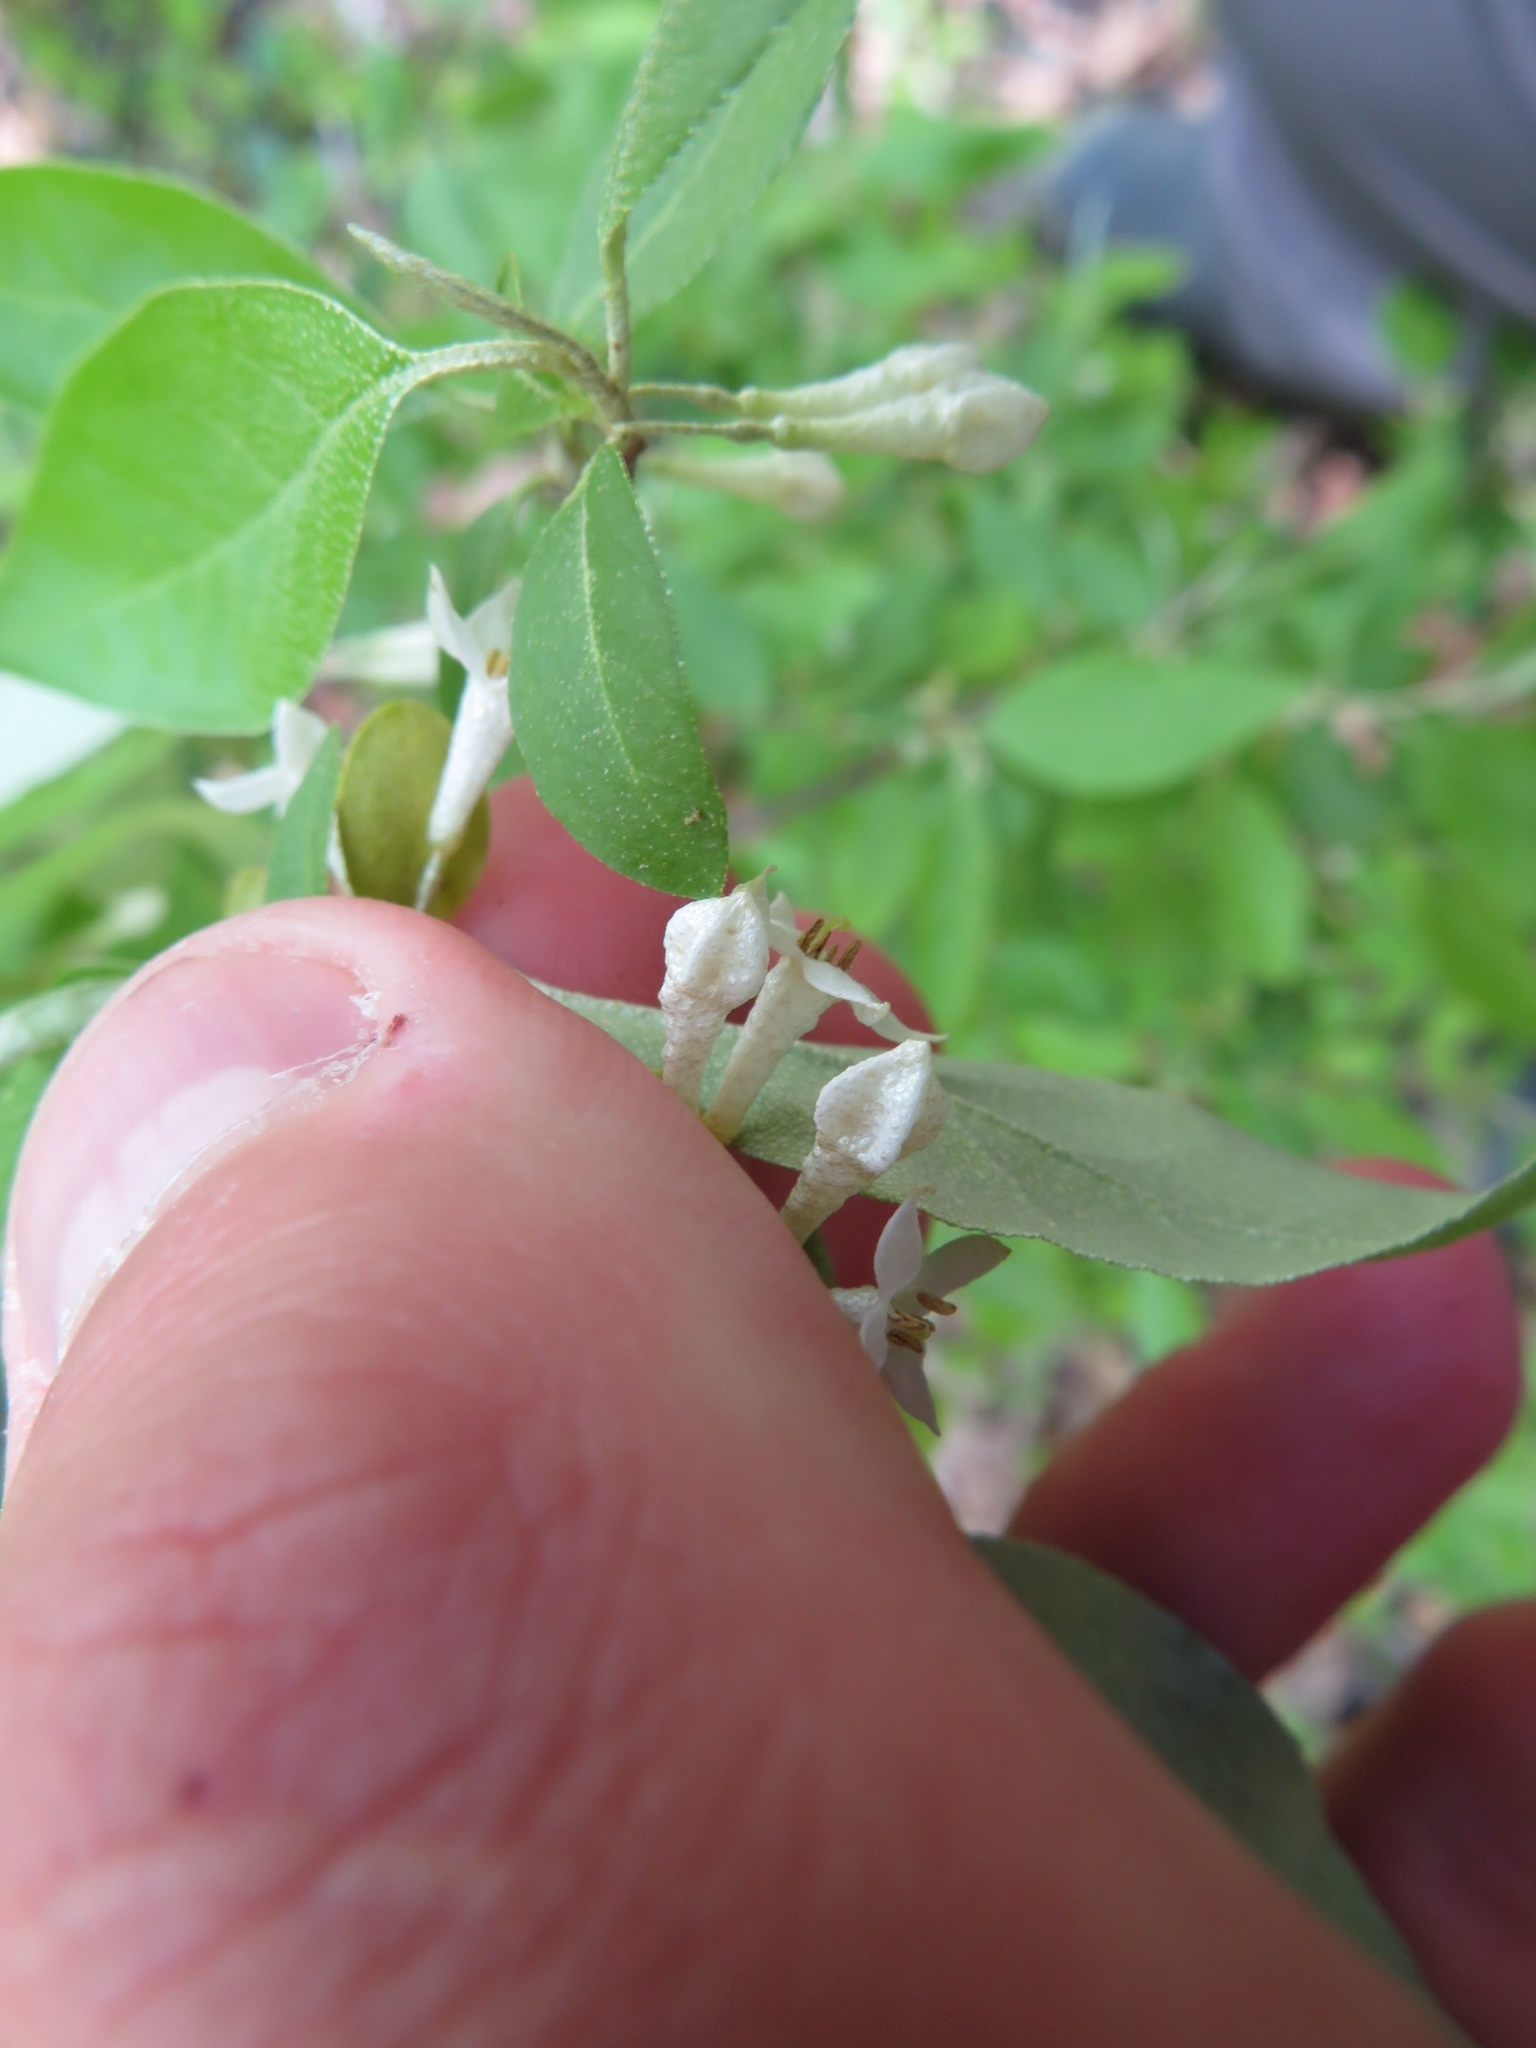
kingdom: Plantae
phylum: Tracheophyta
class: Magnoliopsida
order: Rosales
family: Elaeagnaceae
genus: Elaeagnus
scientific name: Elaeagnus umbellata
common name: Autumn olive
